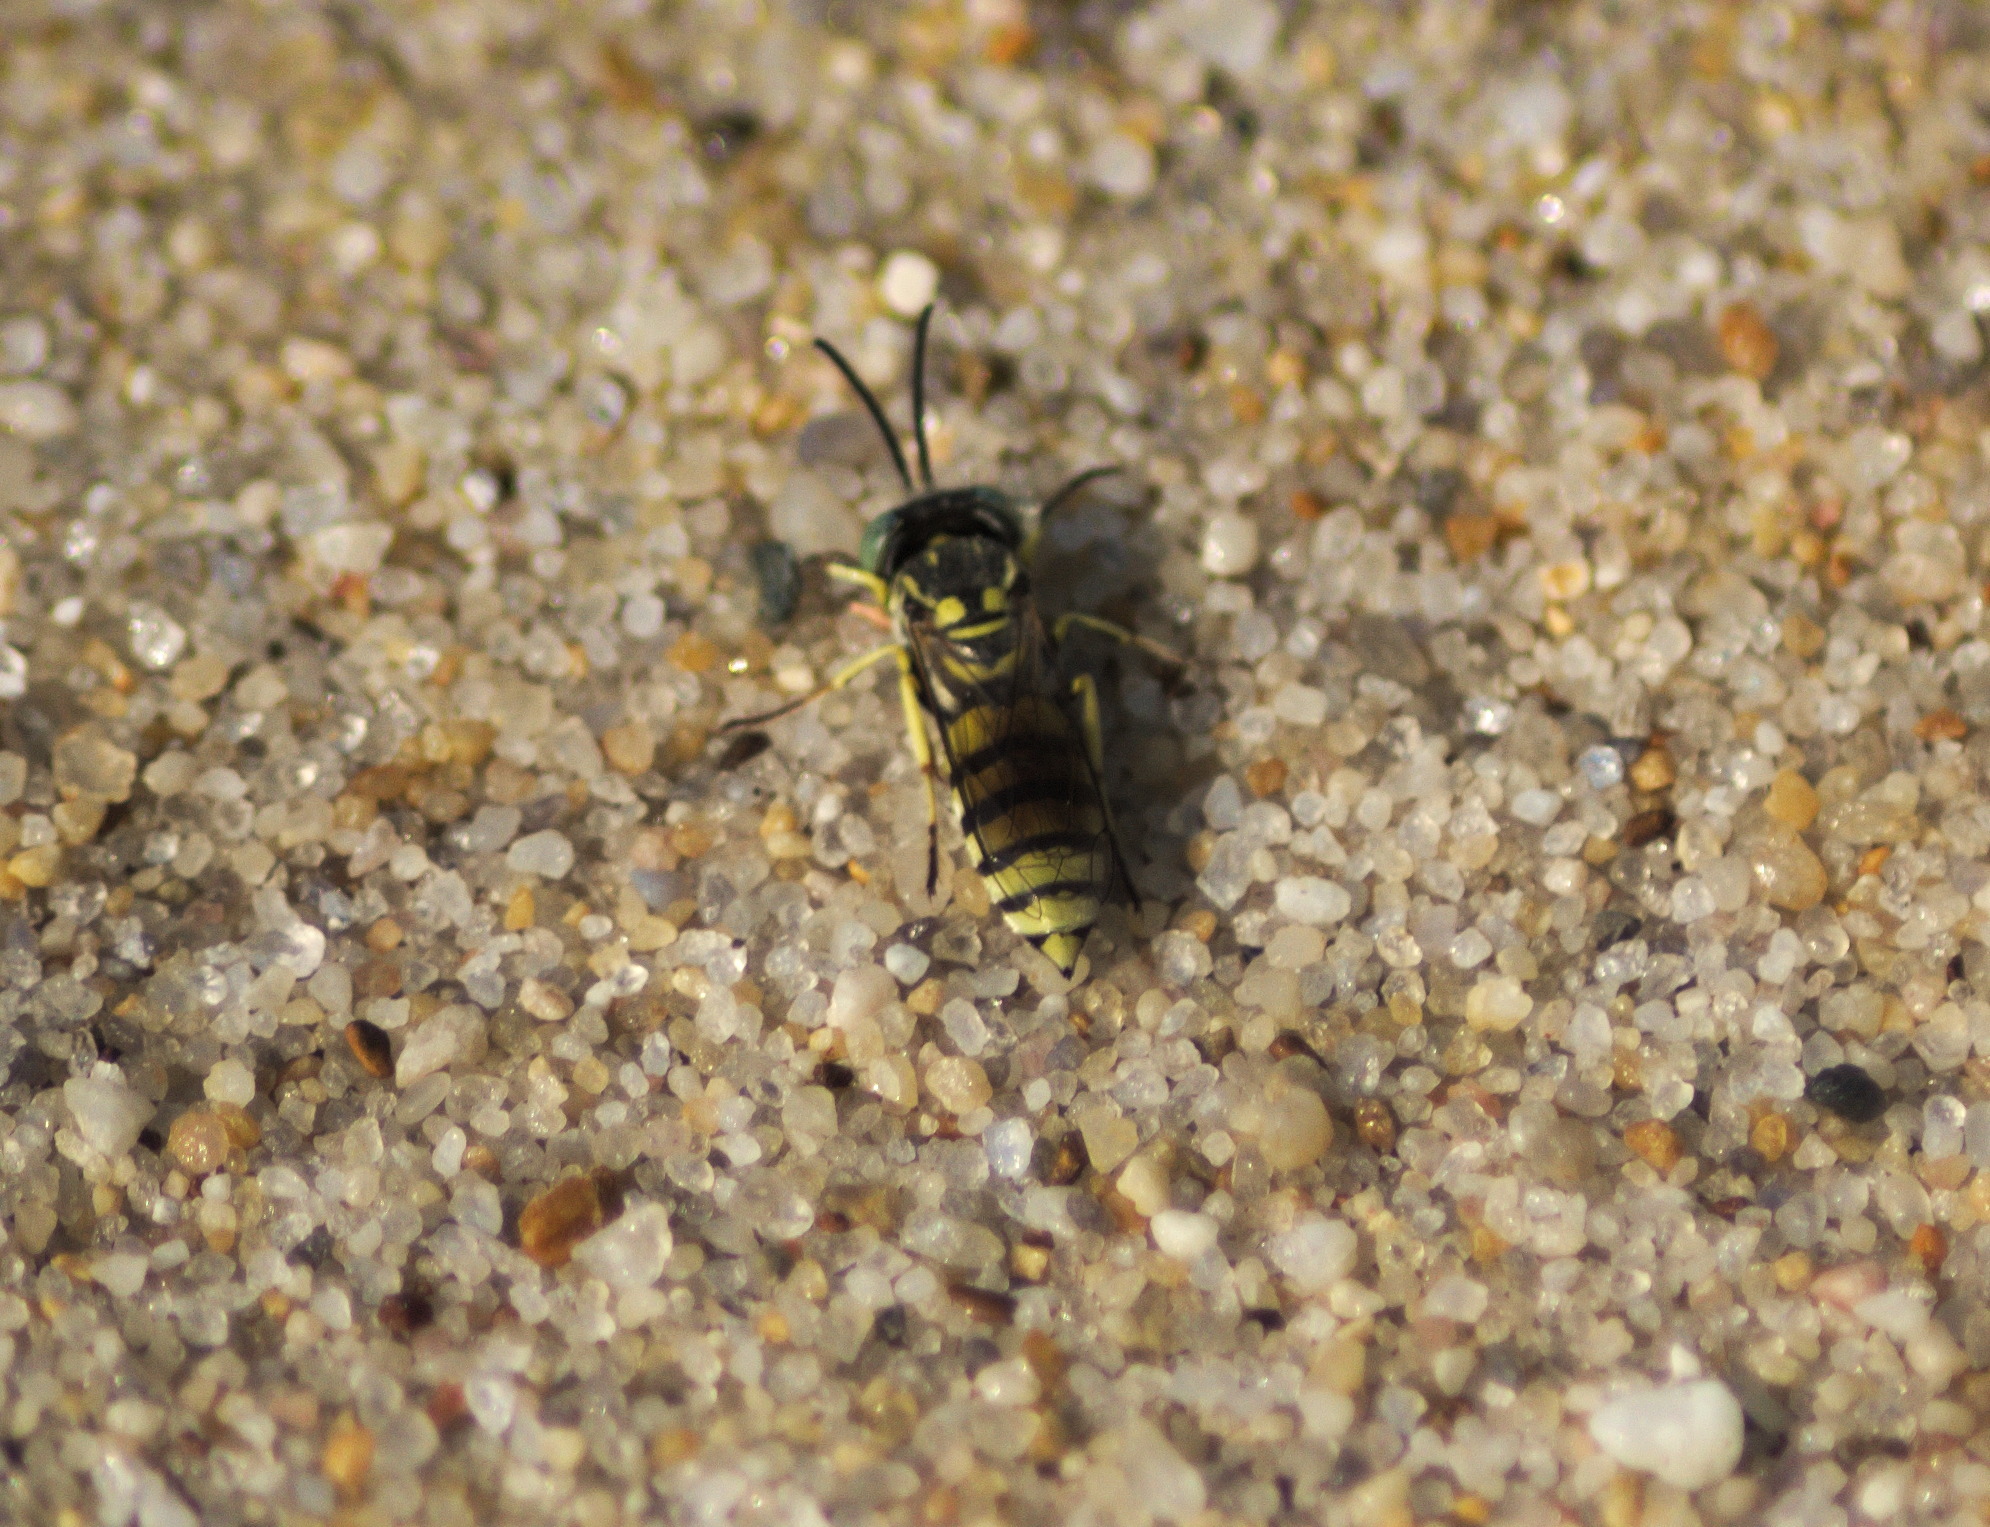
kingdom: Animalia
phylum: Arthropoda
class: Insecta
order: Hymenoptera
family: Crabronidae
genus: Microbembex
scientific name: Microbembex monodonta
